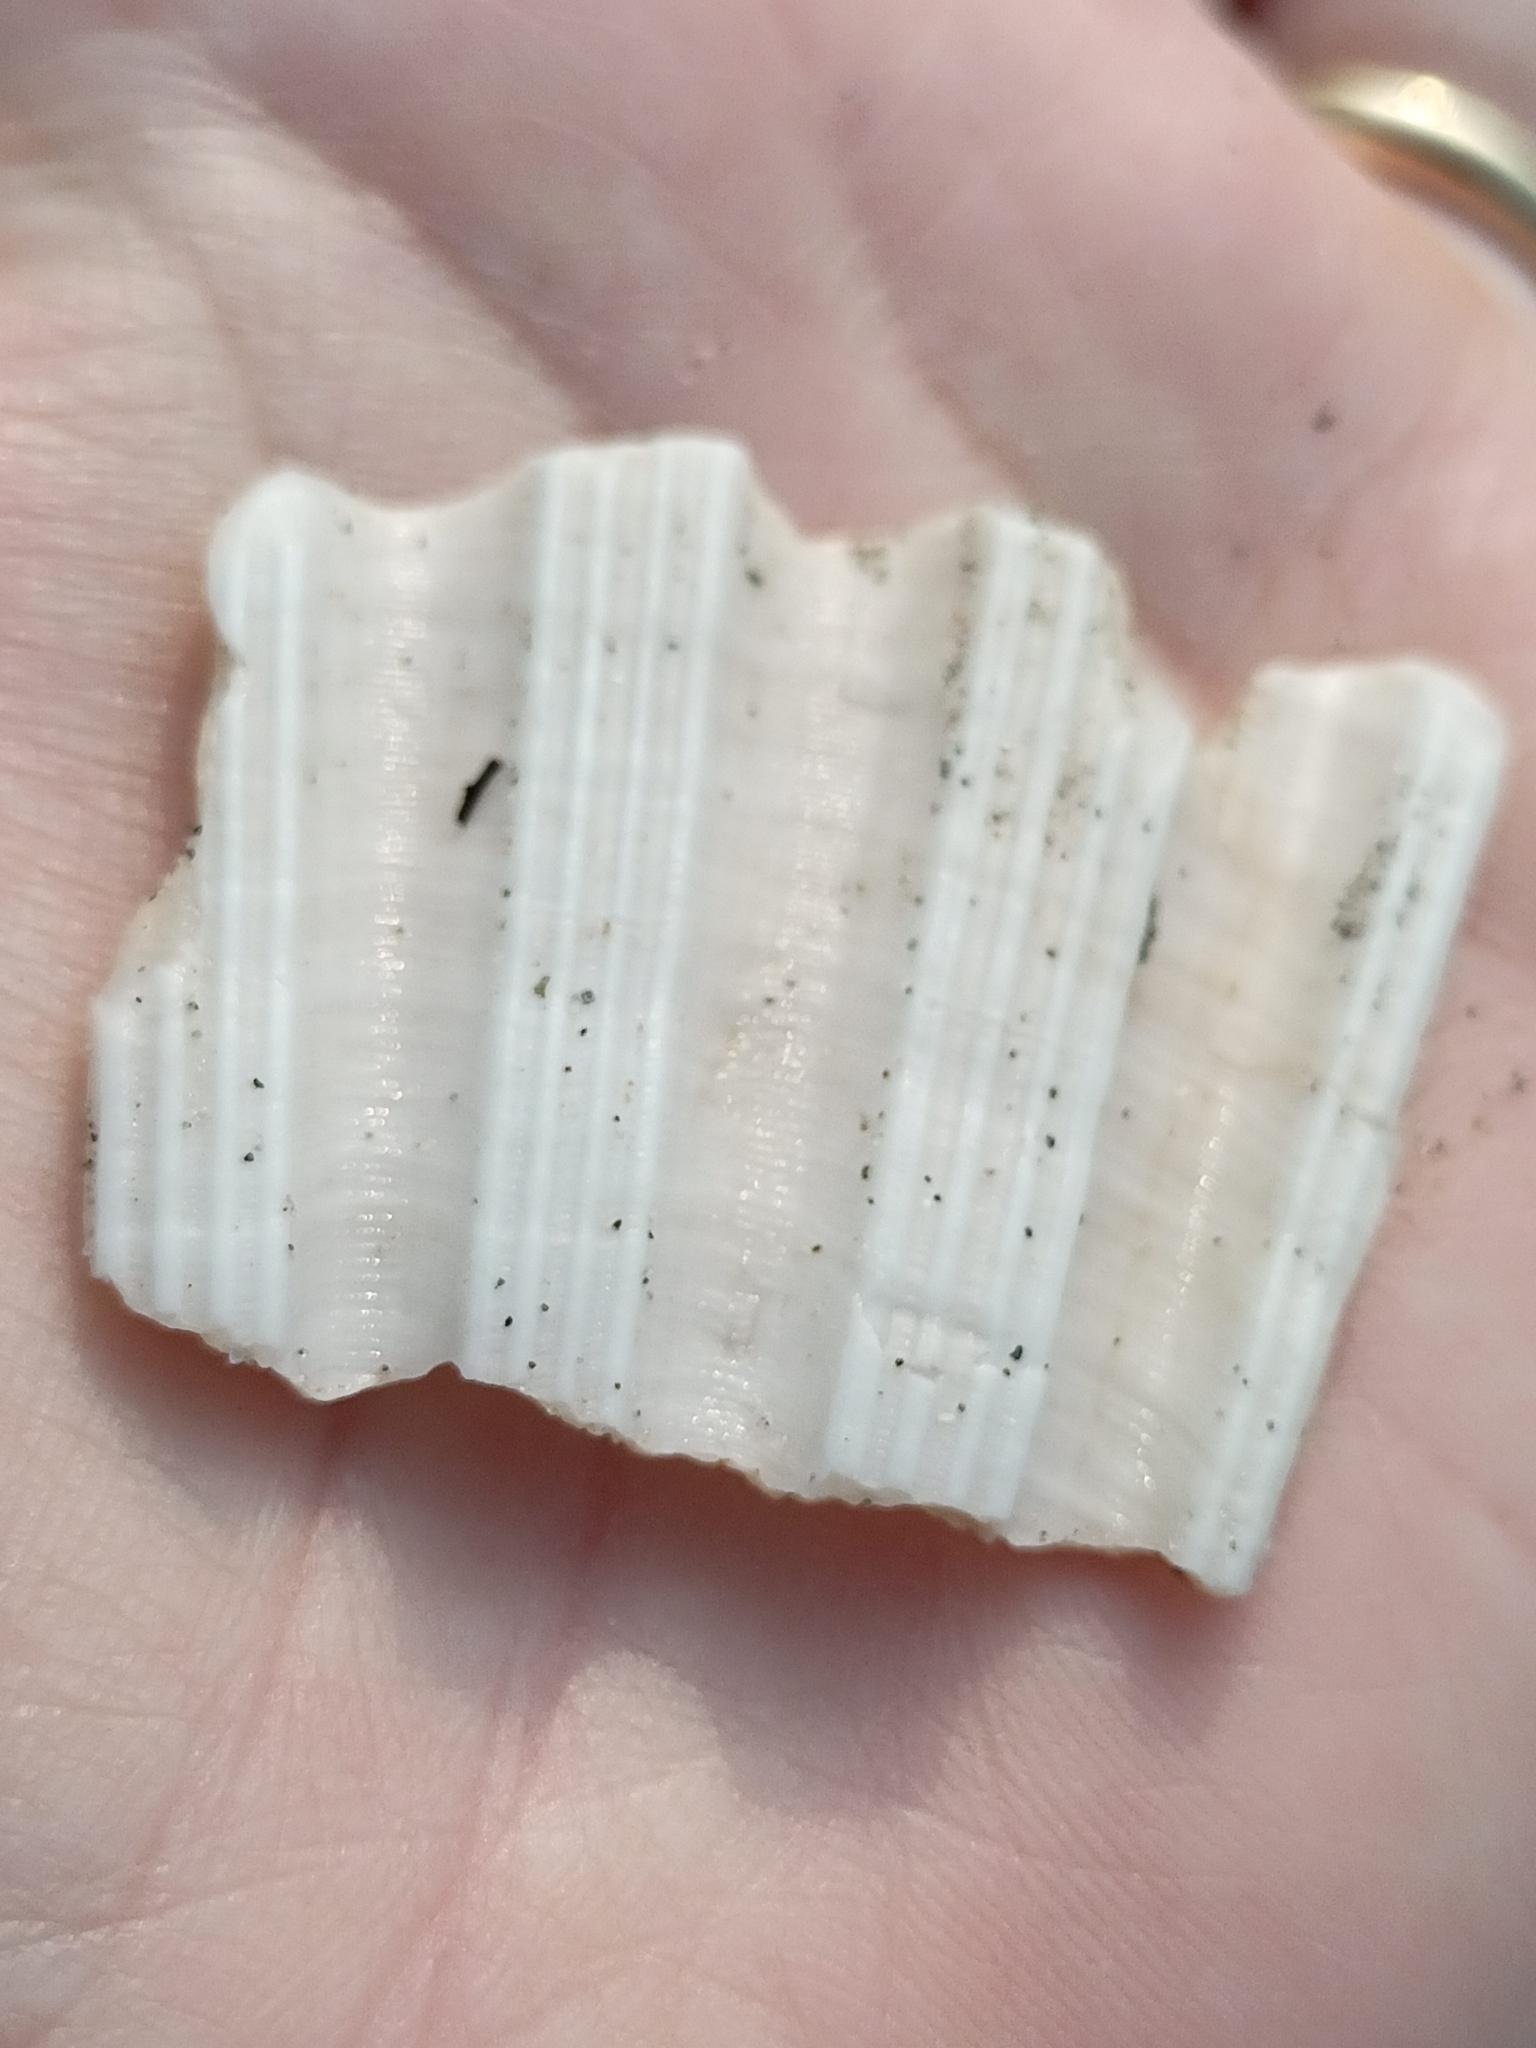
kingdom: Animalia
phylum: Mollusca
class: Bivalvia
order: Pectinida
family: Pectinidae
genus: Pecten
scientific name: Pecten jacobaeus
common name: St.james's scallop
